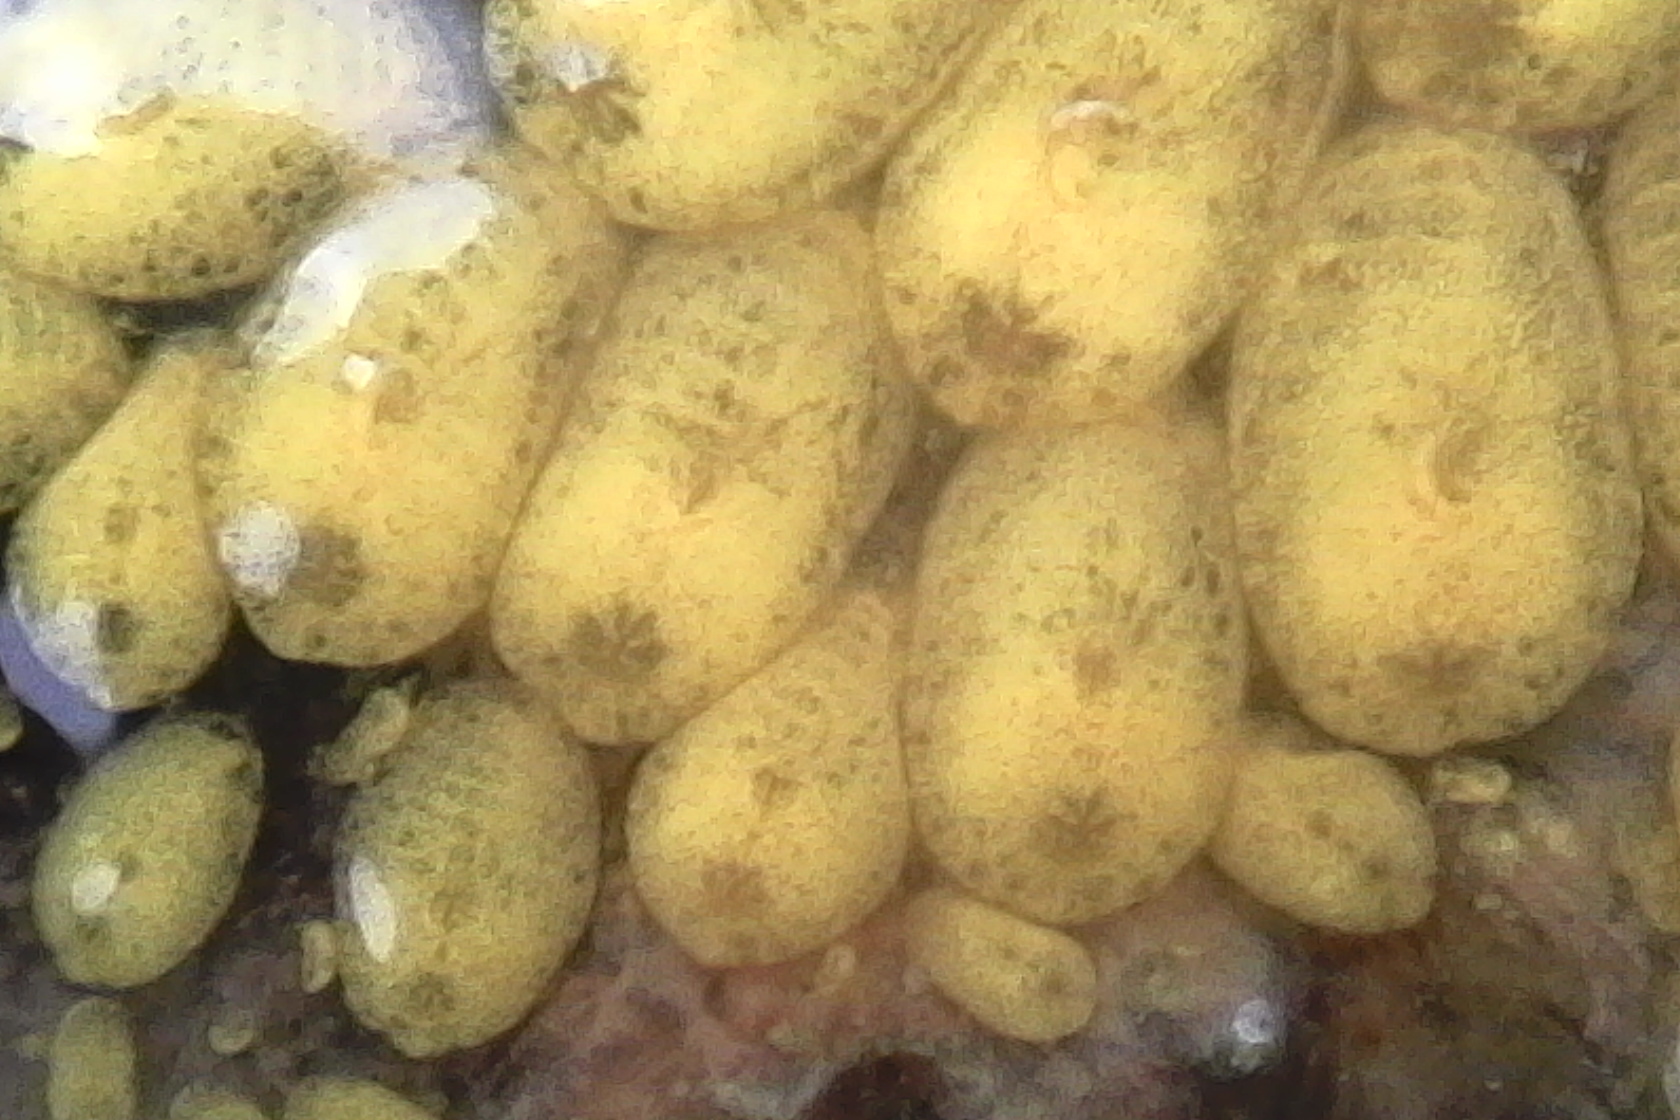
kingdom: Animalia
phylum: Chordata
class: Ascidiacea
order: Stolidobranchia
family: Styelidae
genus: Symplegma
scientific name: Symplegma brakenhielmi
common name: Ascidian
